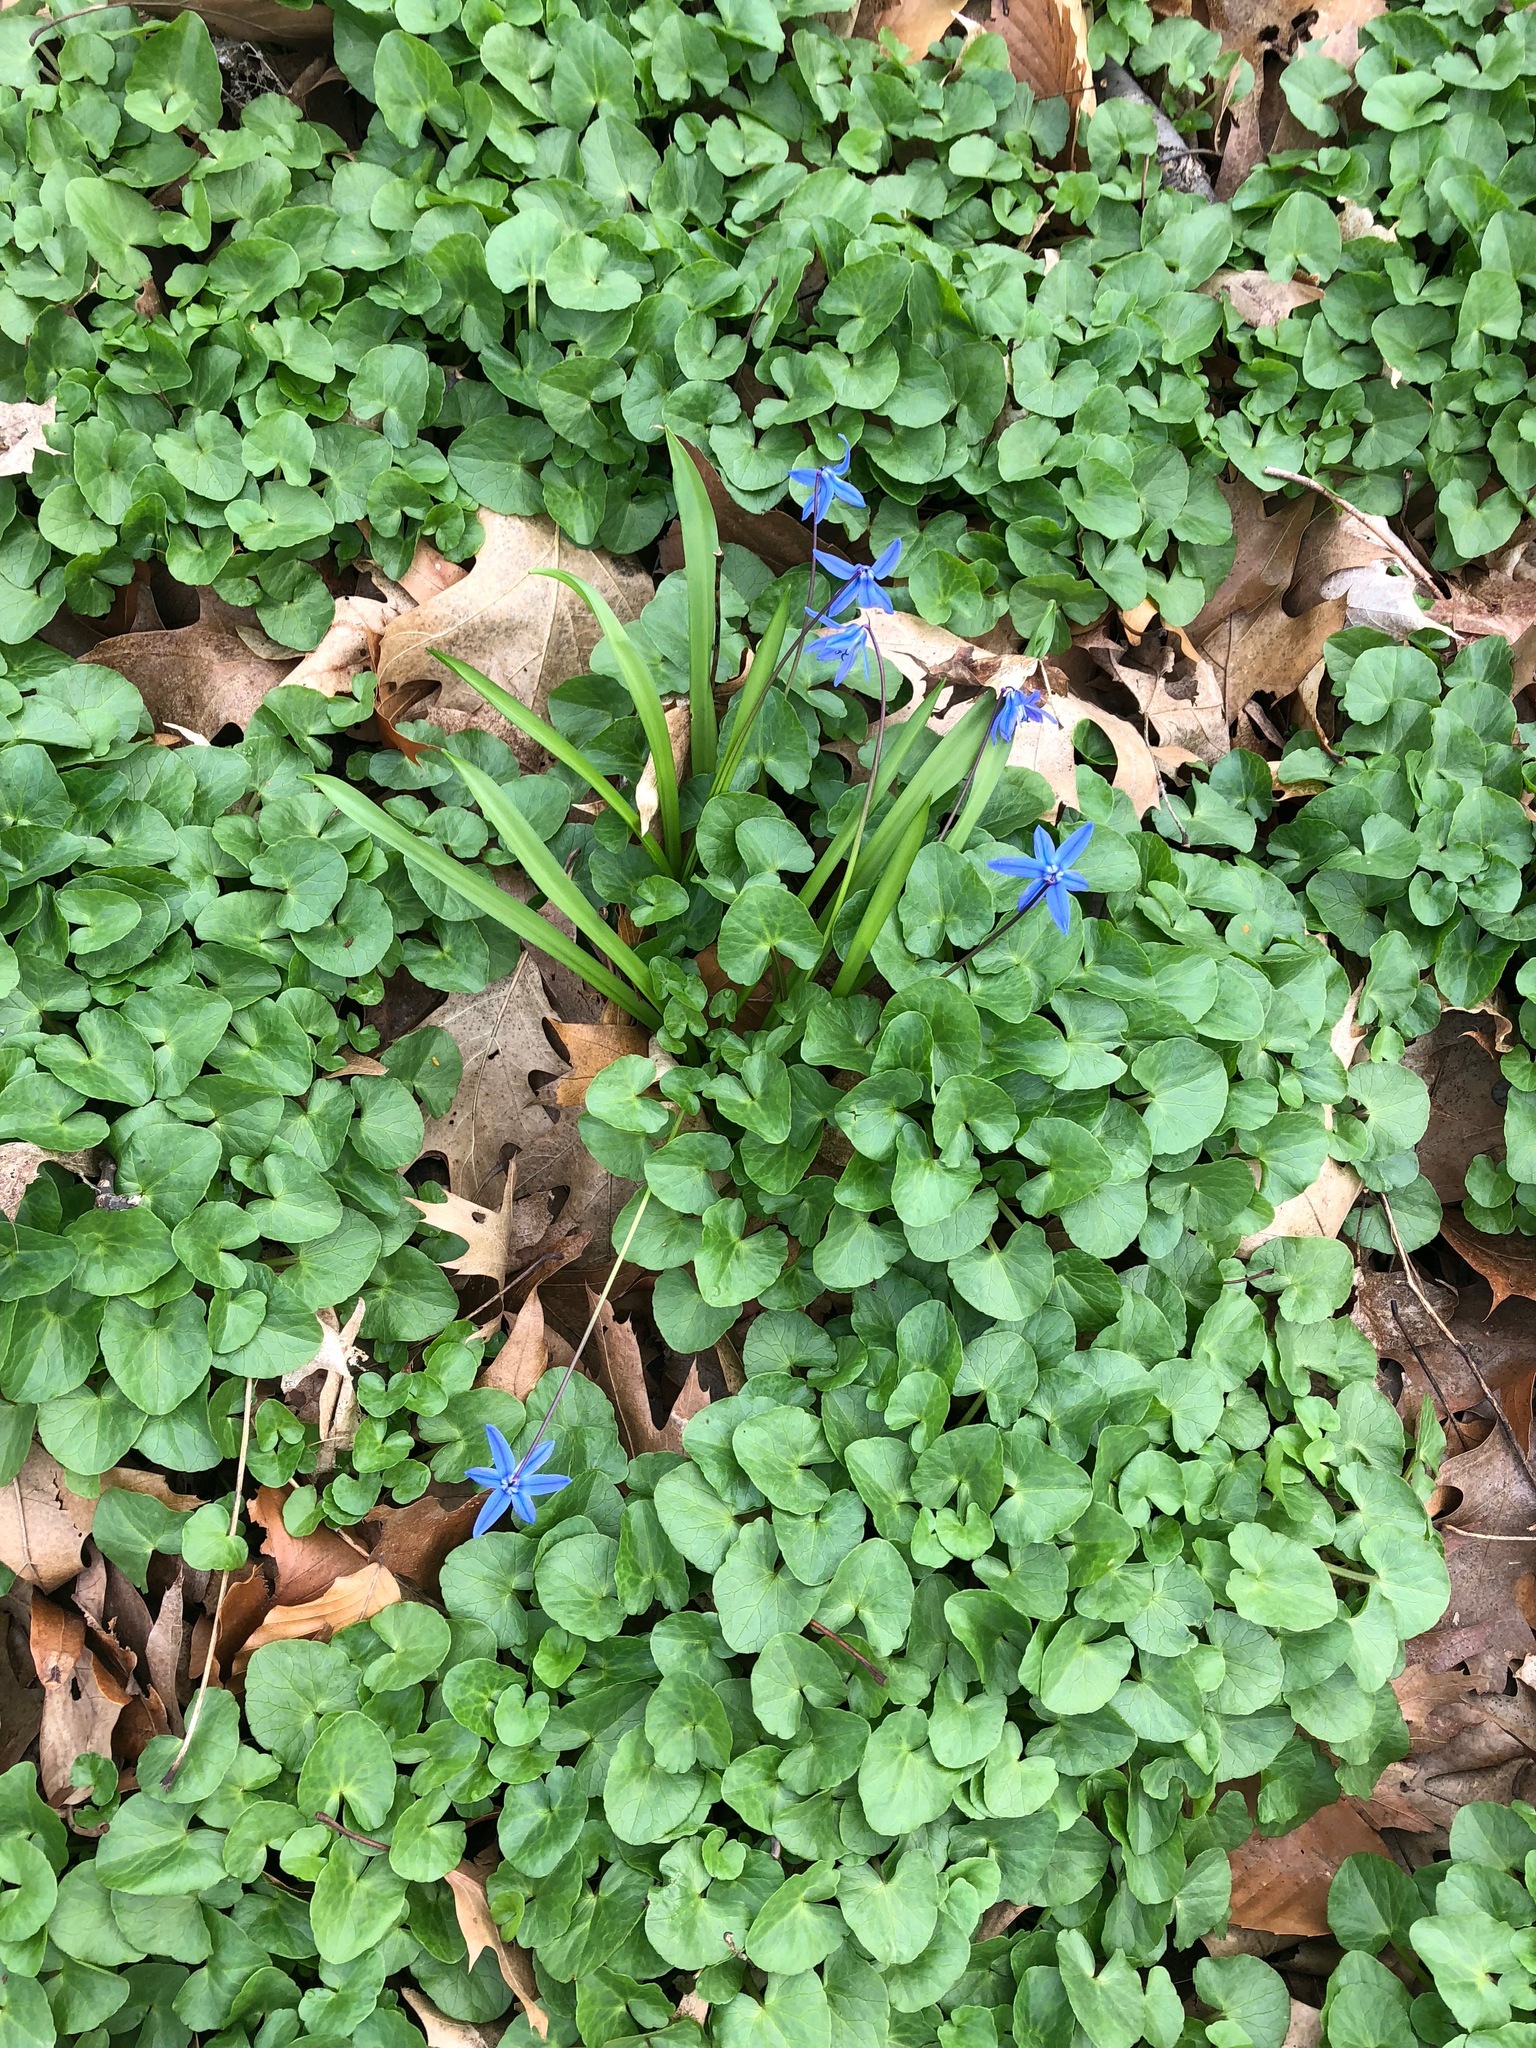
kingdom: Plantae
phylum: Tracheophyta
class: Liliopsida
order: Asparagales
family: Asparagaceae
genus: Scilla
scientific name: Scilla siberica
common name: Siberian squill
